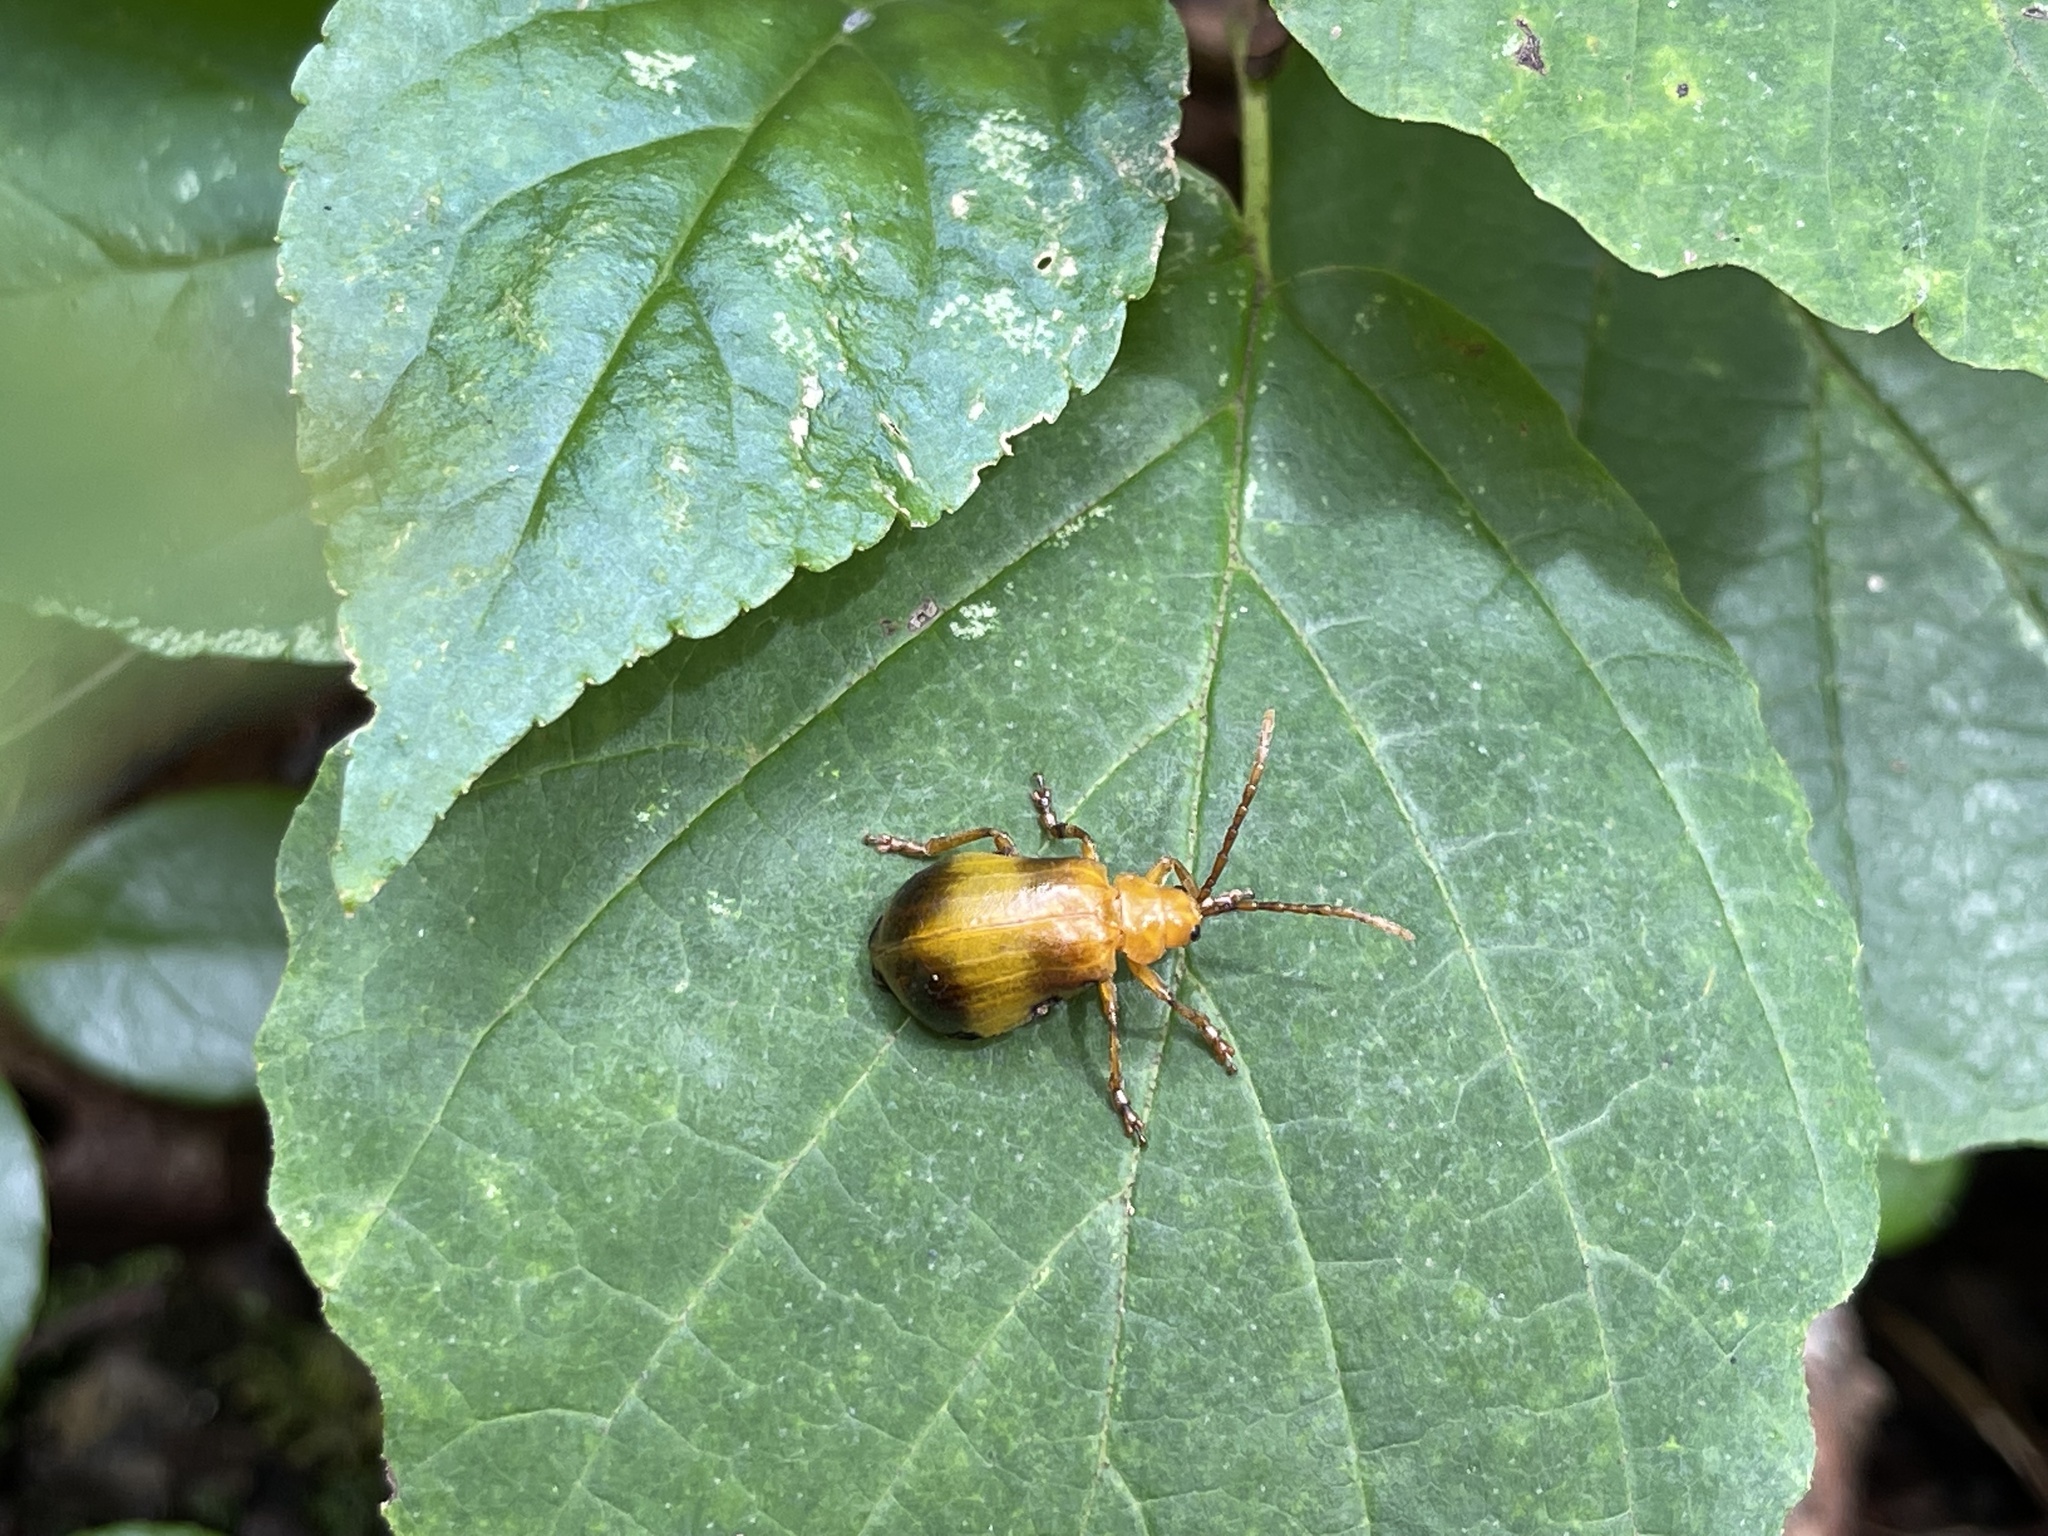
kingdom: Animalia
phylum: Arthropoda
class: Insecta
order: Coleoptera
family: Chrysomelidae
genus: Monocesta
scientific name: Monocesta coryli
